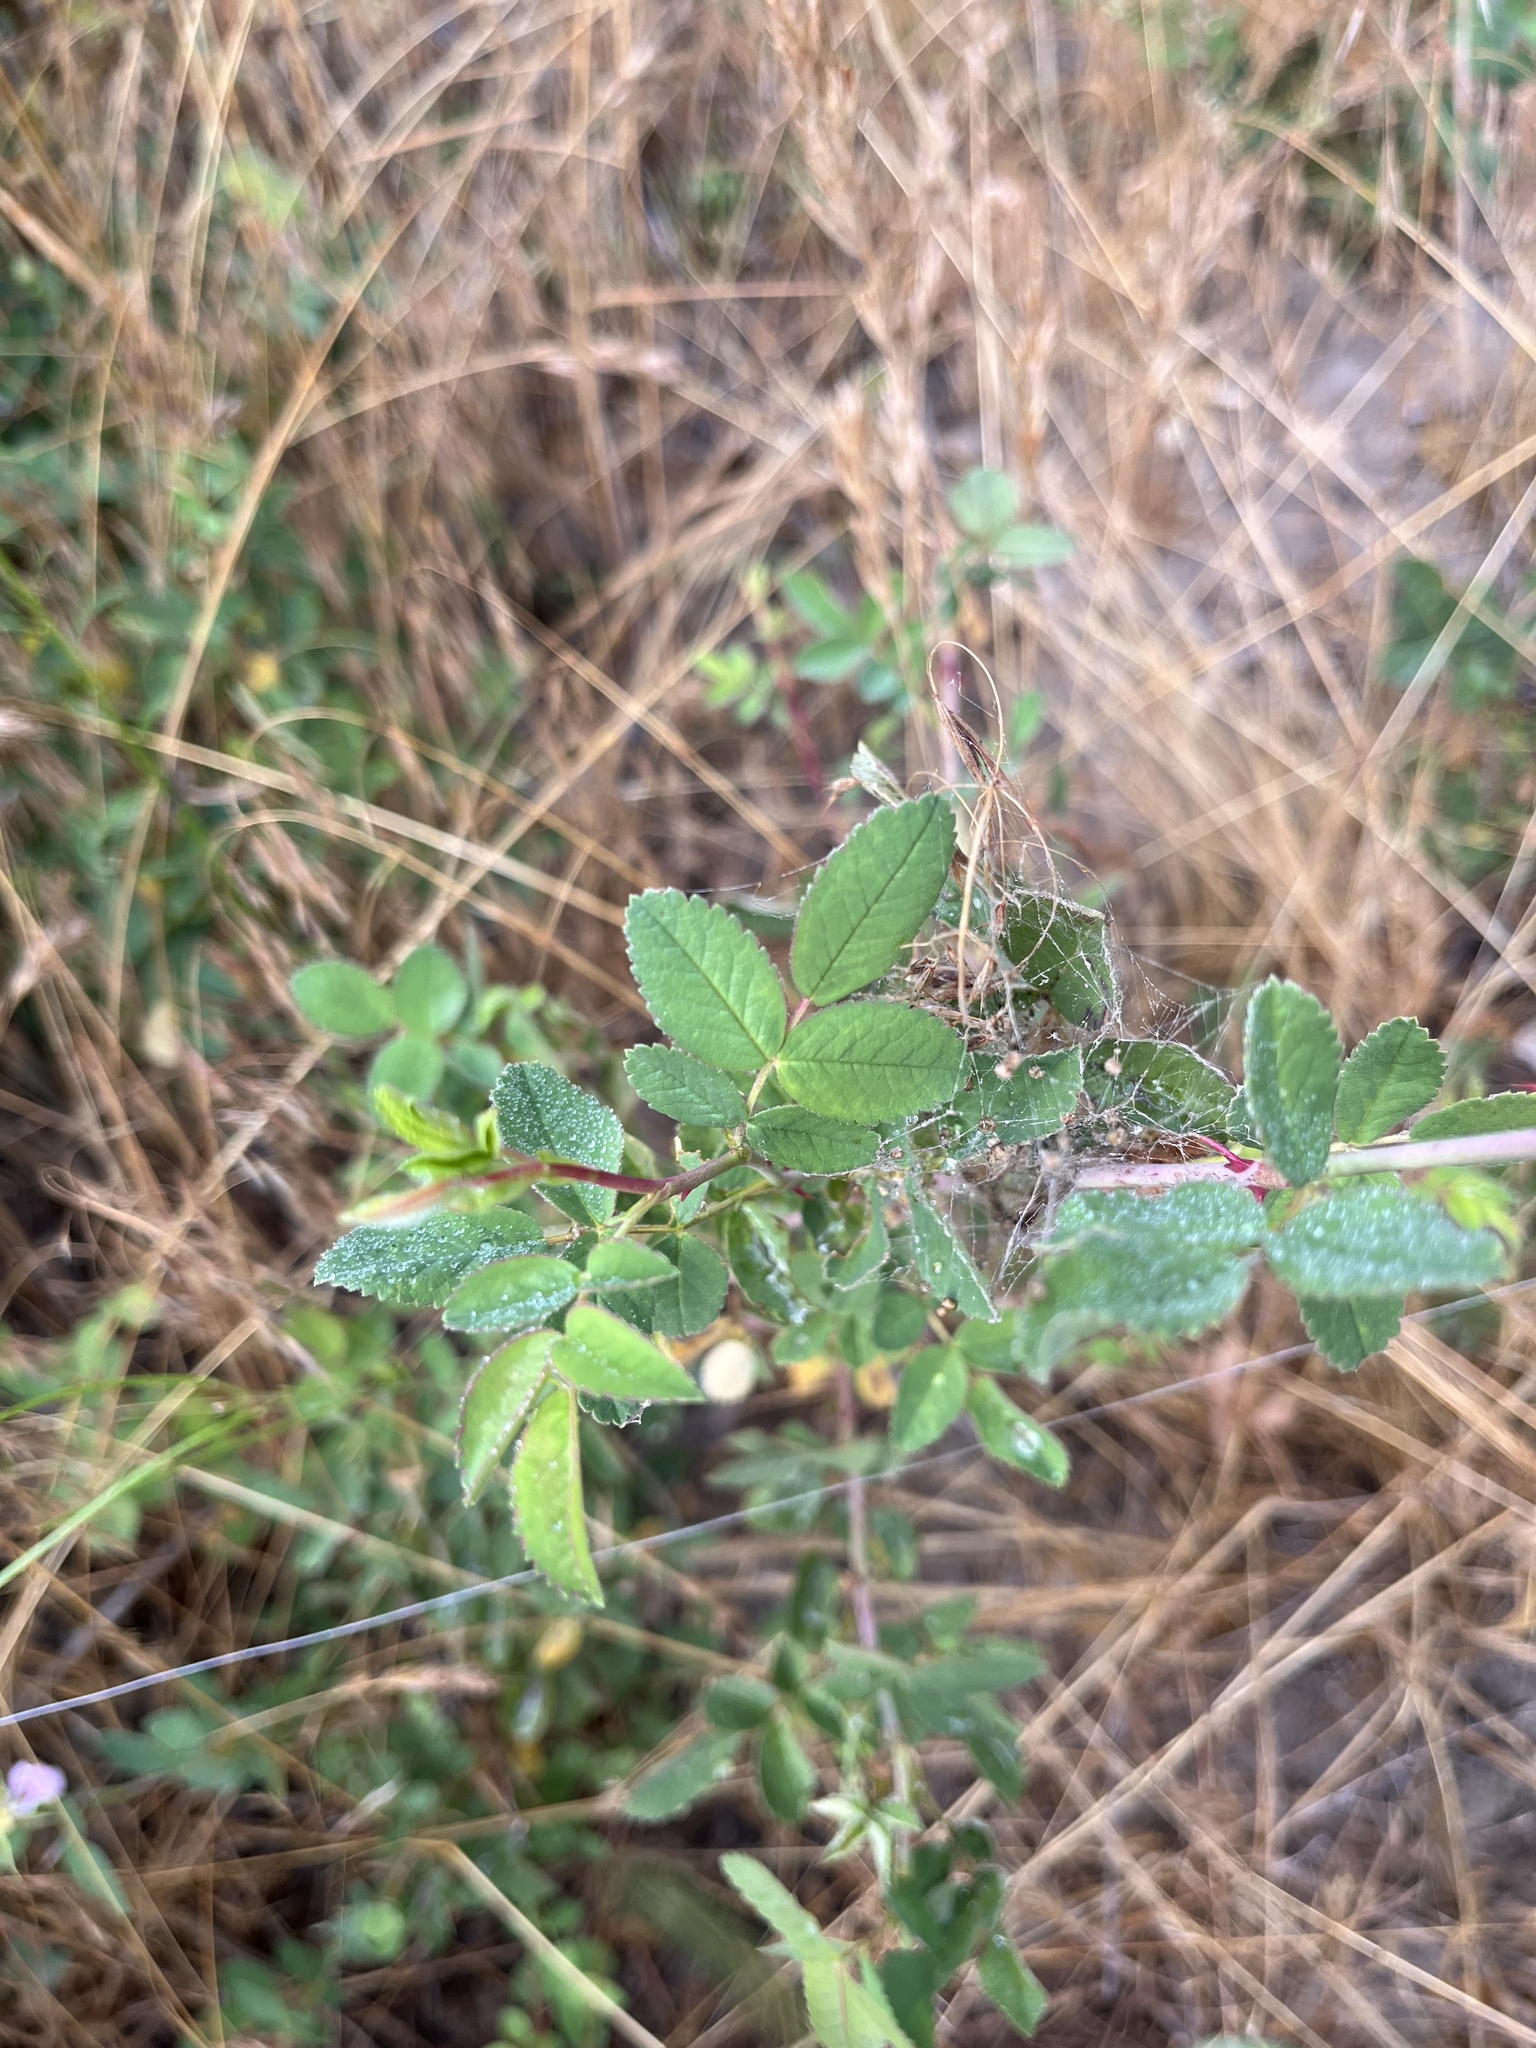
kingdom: Plantae
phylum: Tracheophyta
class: Magnoliopsida
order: Rosales
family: Rosaceae
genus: Rosa
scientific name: Rosa californica
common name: California rose
